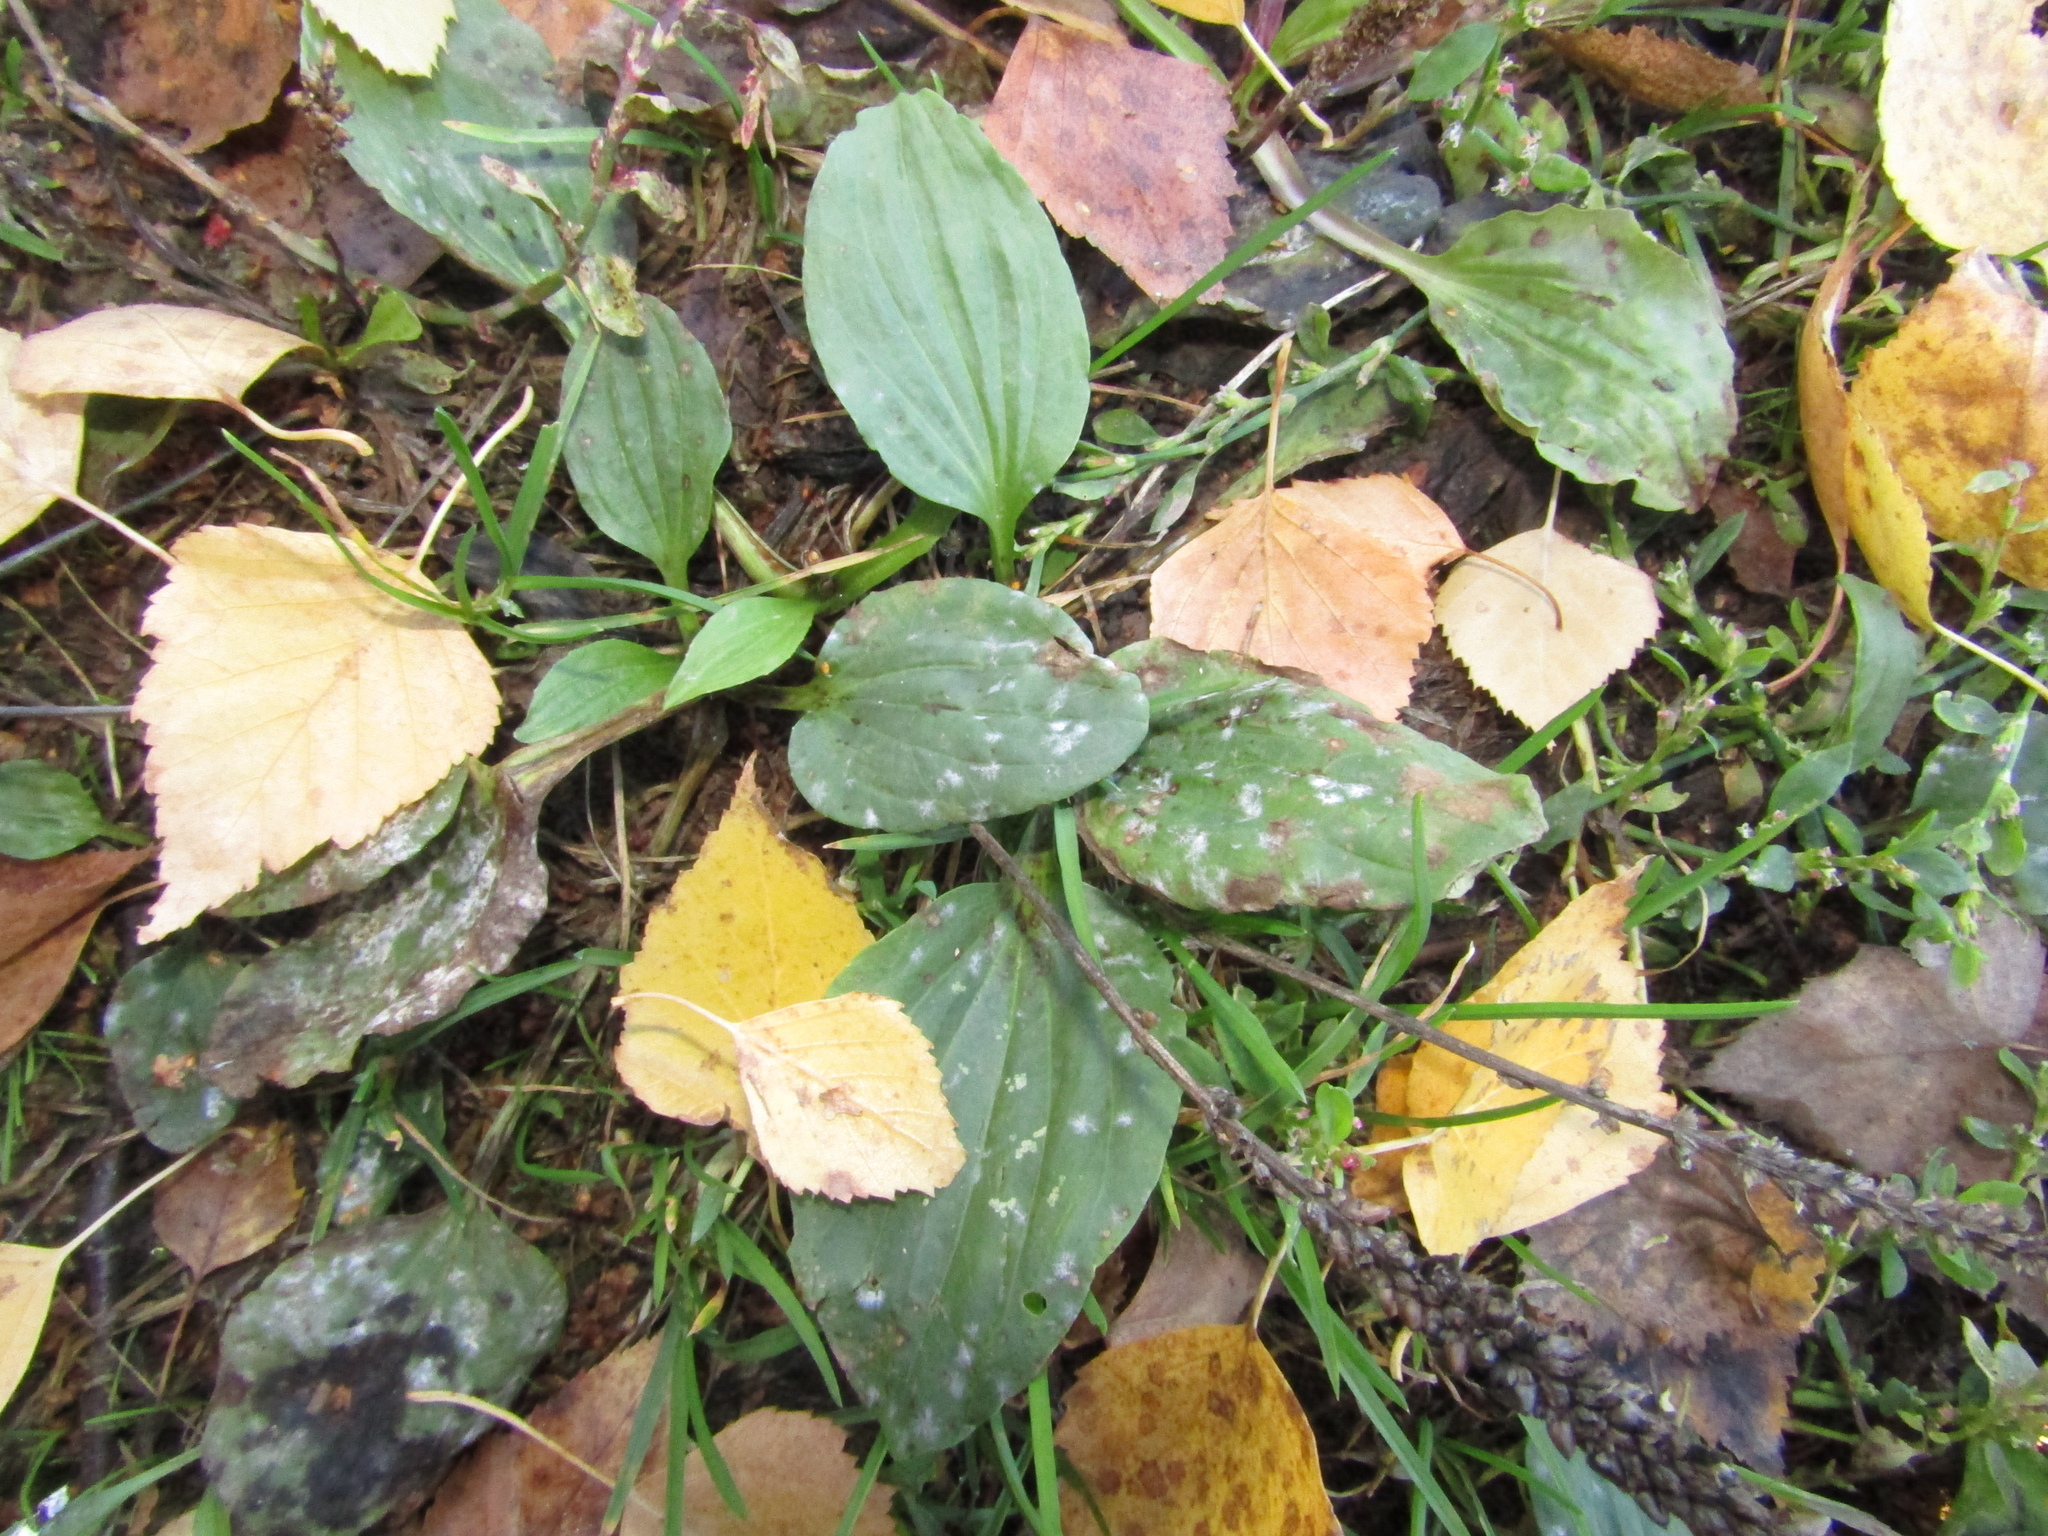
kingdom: Plantae
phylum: Tracheophyta
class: Magnoliopsida
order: Lamiales
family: Plantaginaceae
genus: Plantago
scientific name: Plantago major
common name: Common plantain
